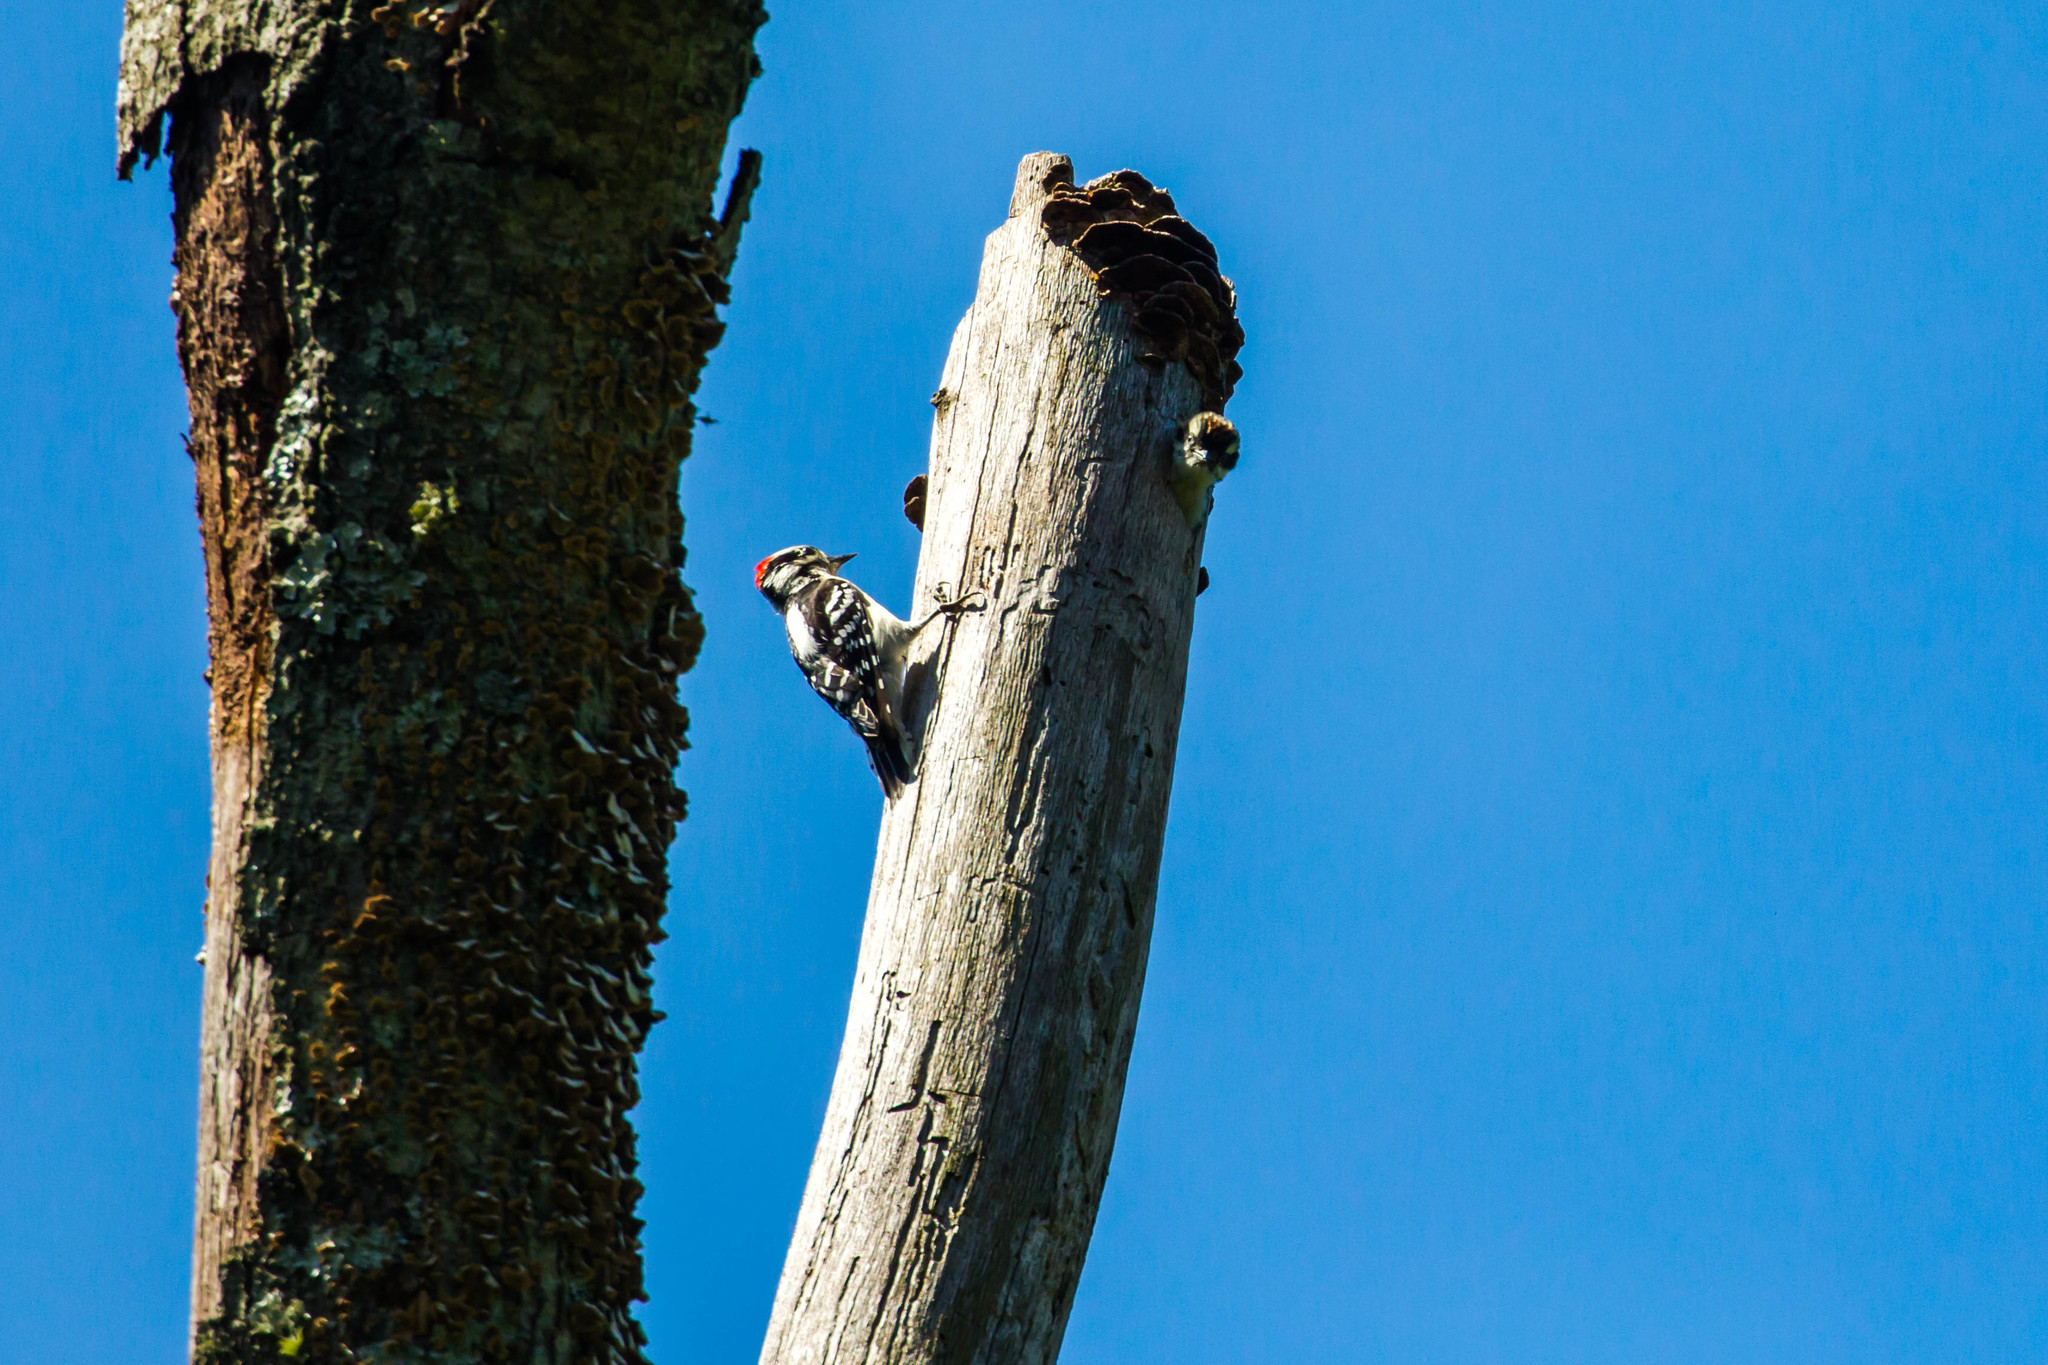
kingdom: Animalia
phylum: Chordata
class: Aves
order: Piciformes
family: Picidae
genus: Dryobates
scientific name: Dryobates pubescens
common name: Downy woodpecker
